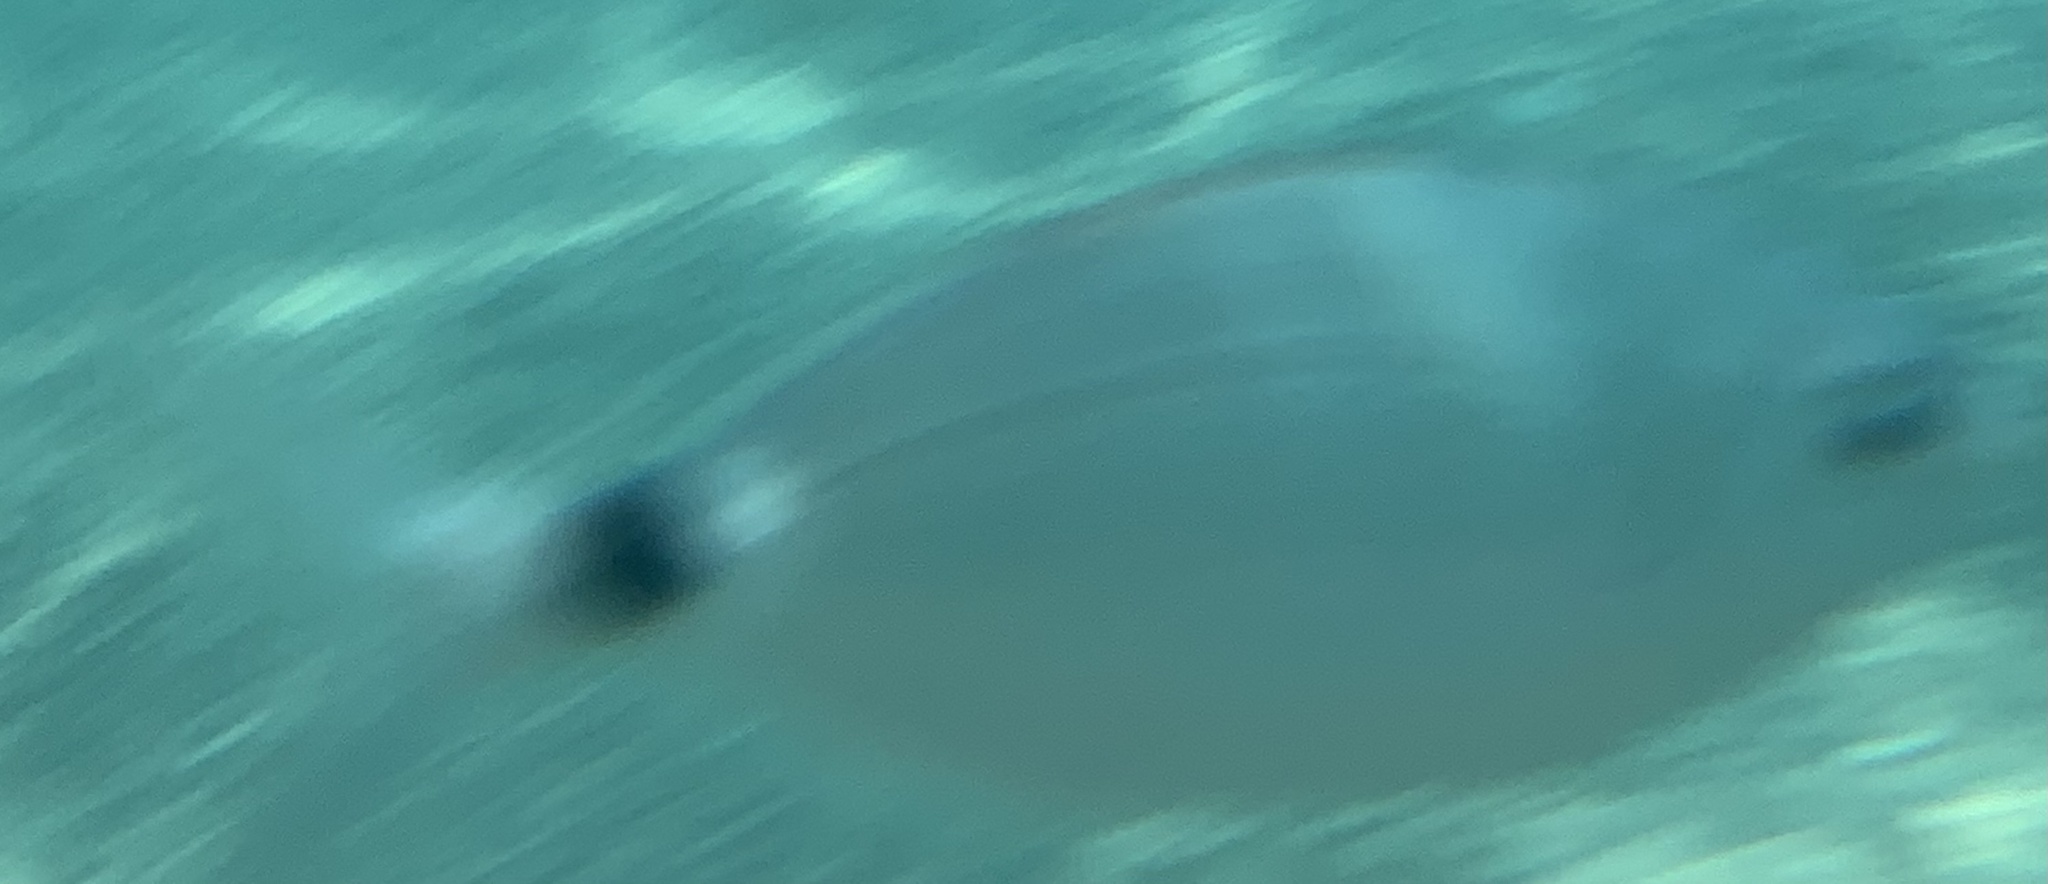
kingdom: Animalia
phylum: Chordata
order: Perciformes
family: Sparidae
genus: Oblada
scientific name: Oblada melanura
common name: Saddled seabream
